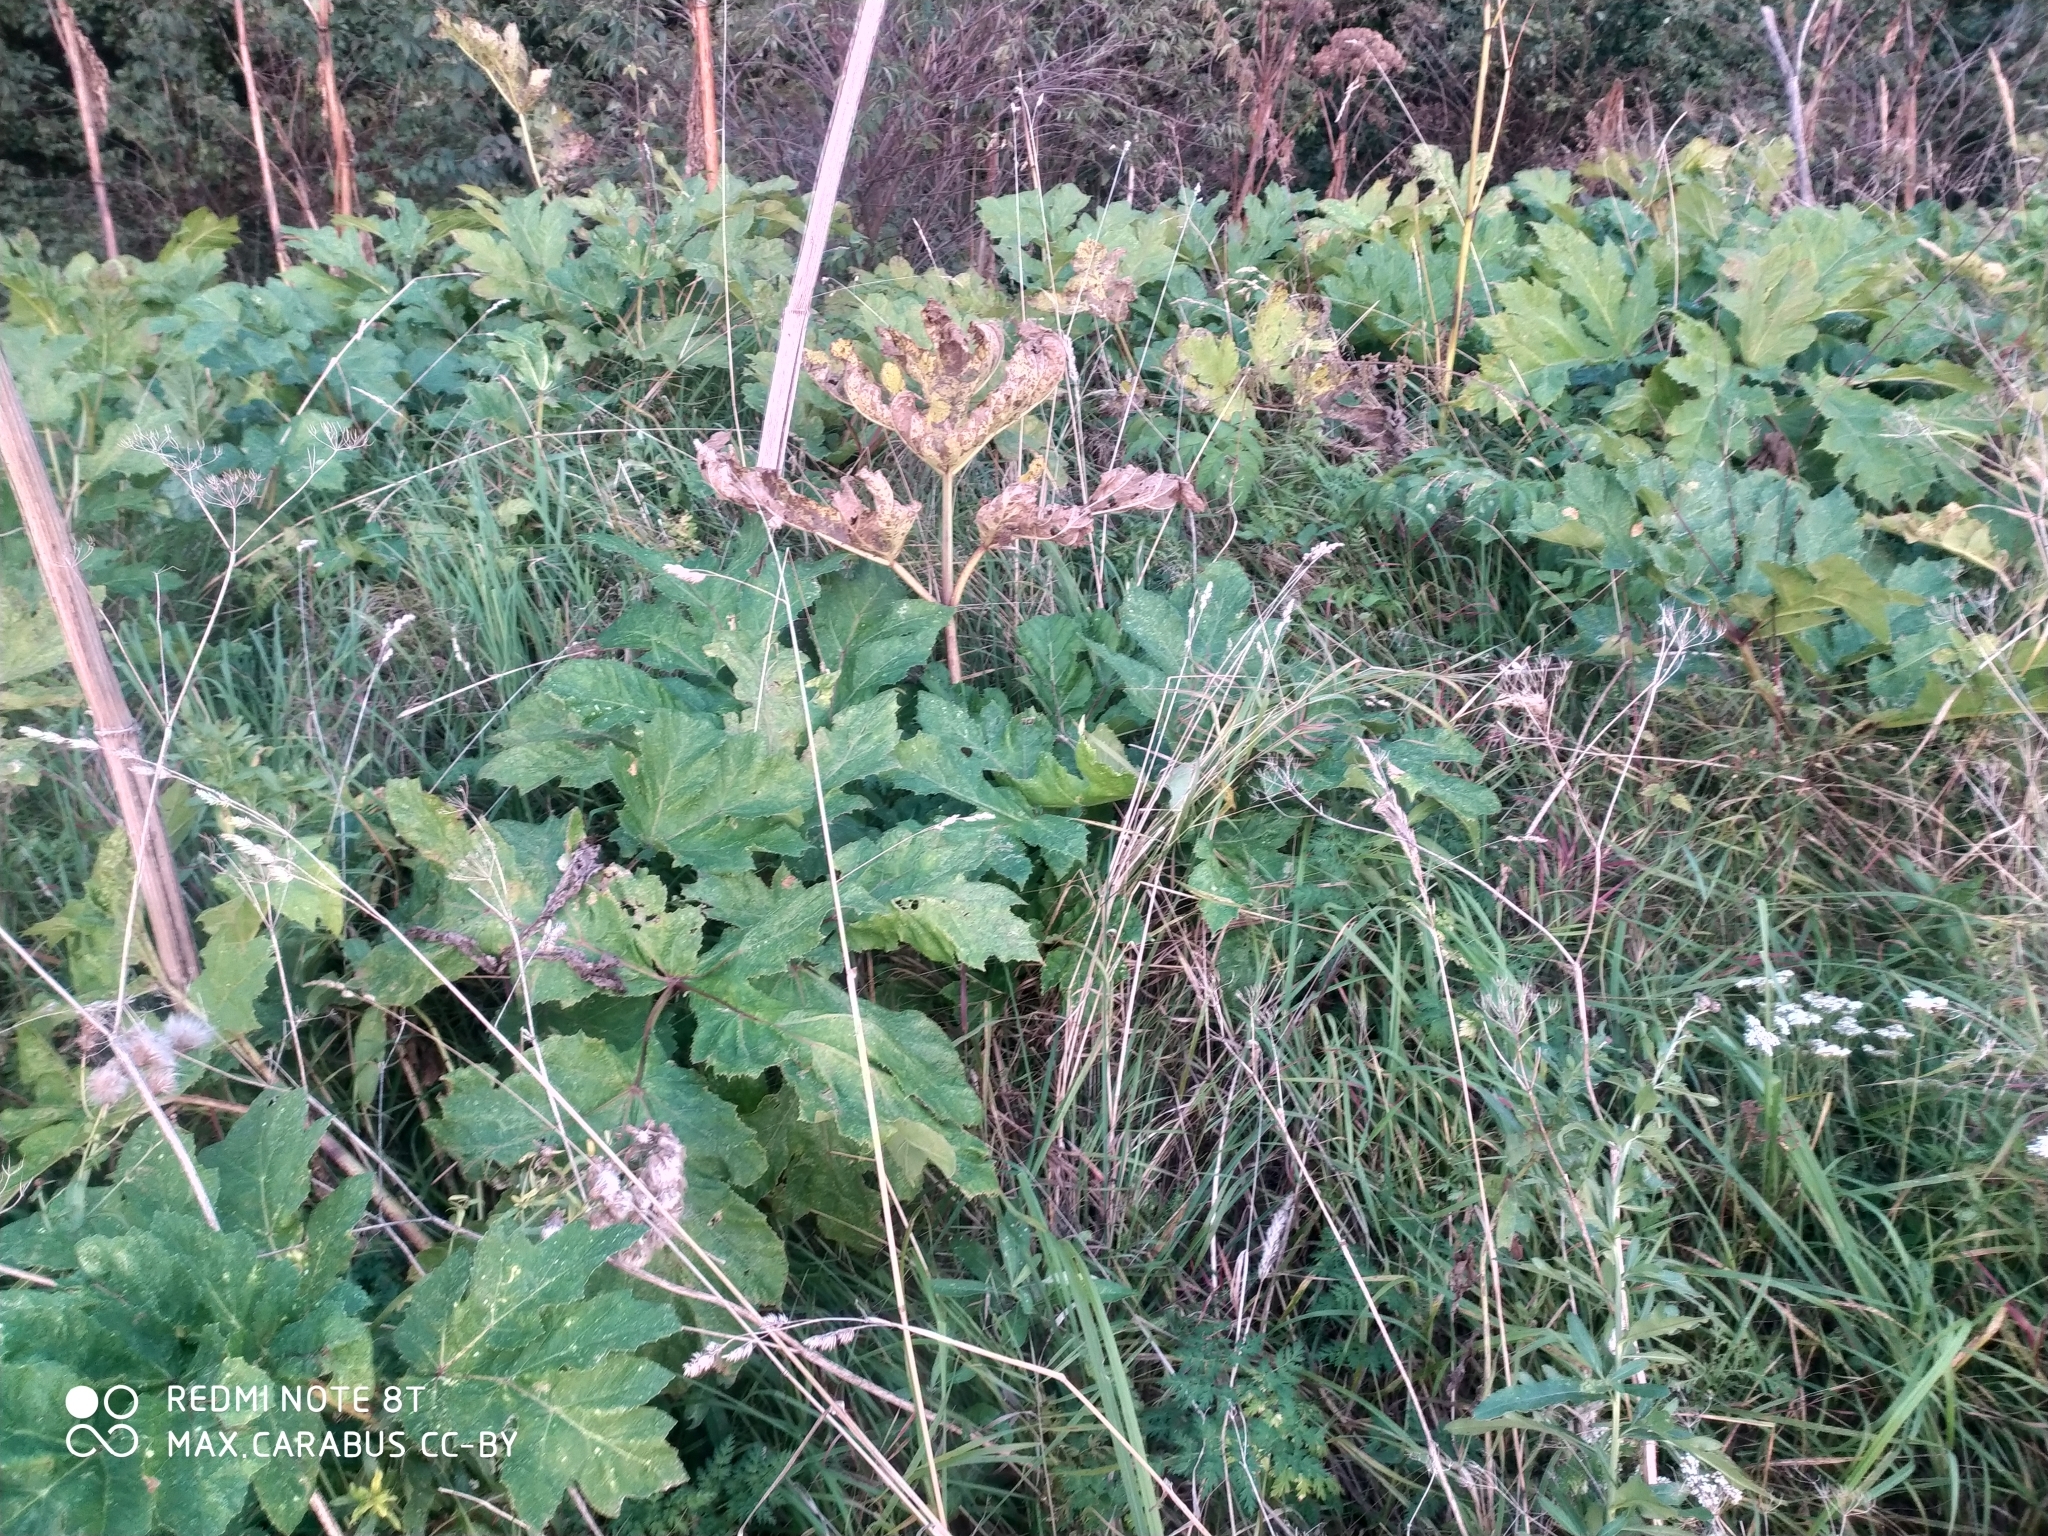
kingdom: Plantae
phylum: Tracheophyta
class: Magnoliopsida
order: Apiales
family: Apiaceae
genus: Heracleum
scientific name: Heracleum sosnowskyi
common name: Sosnowsky's hogweed
